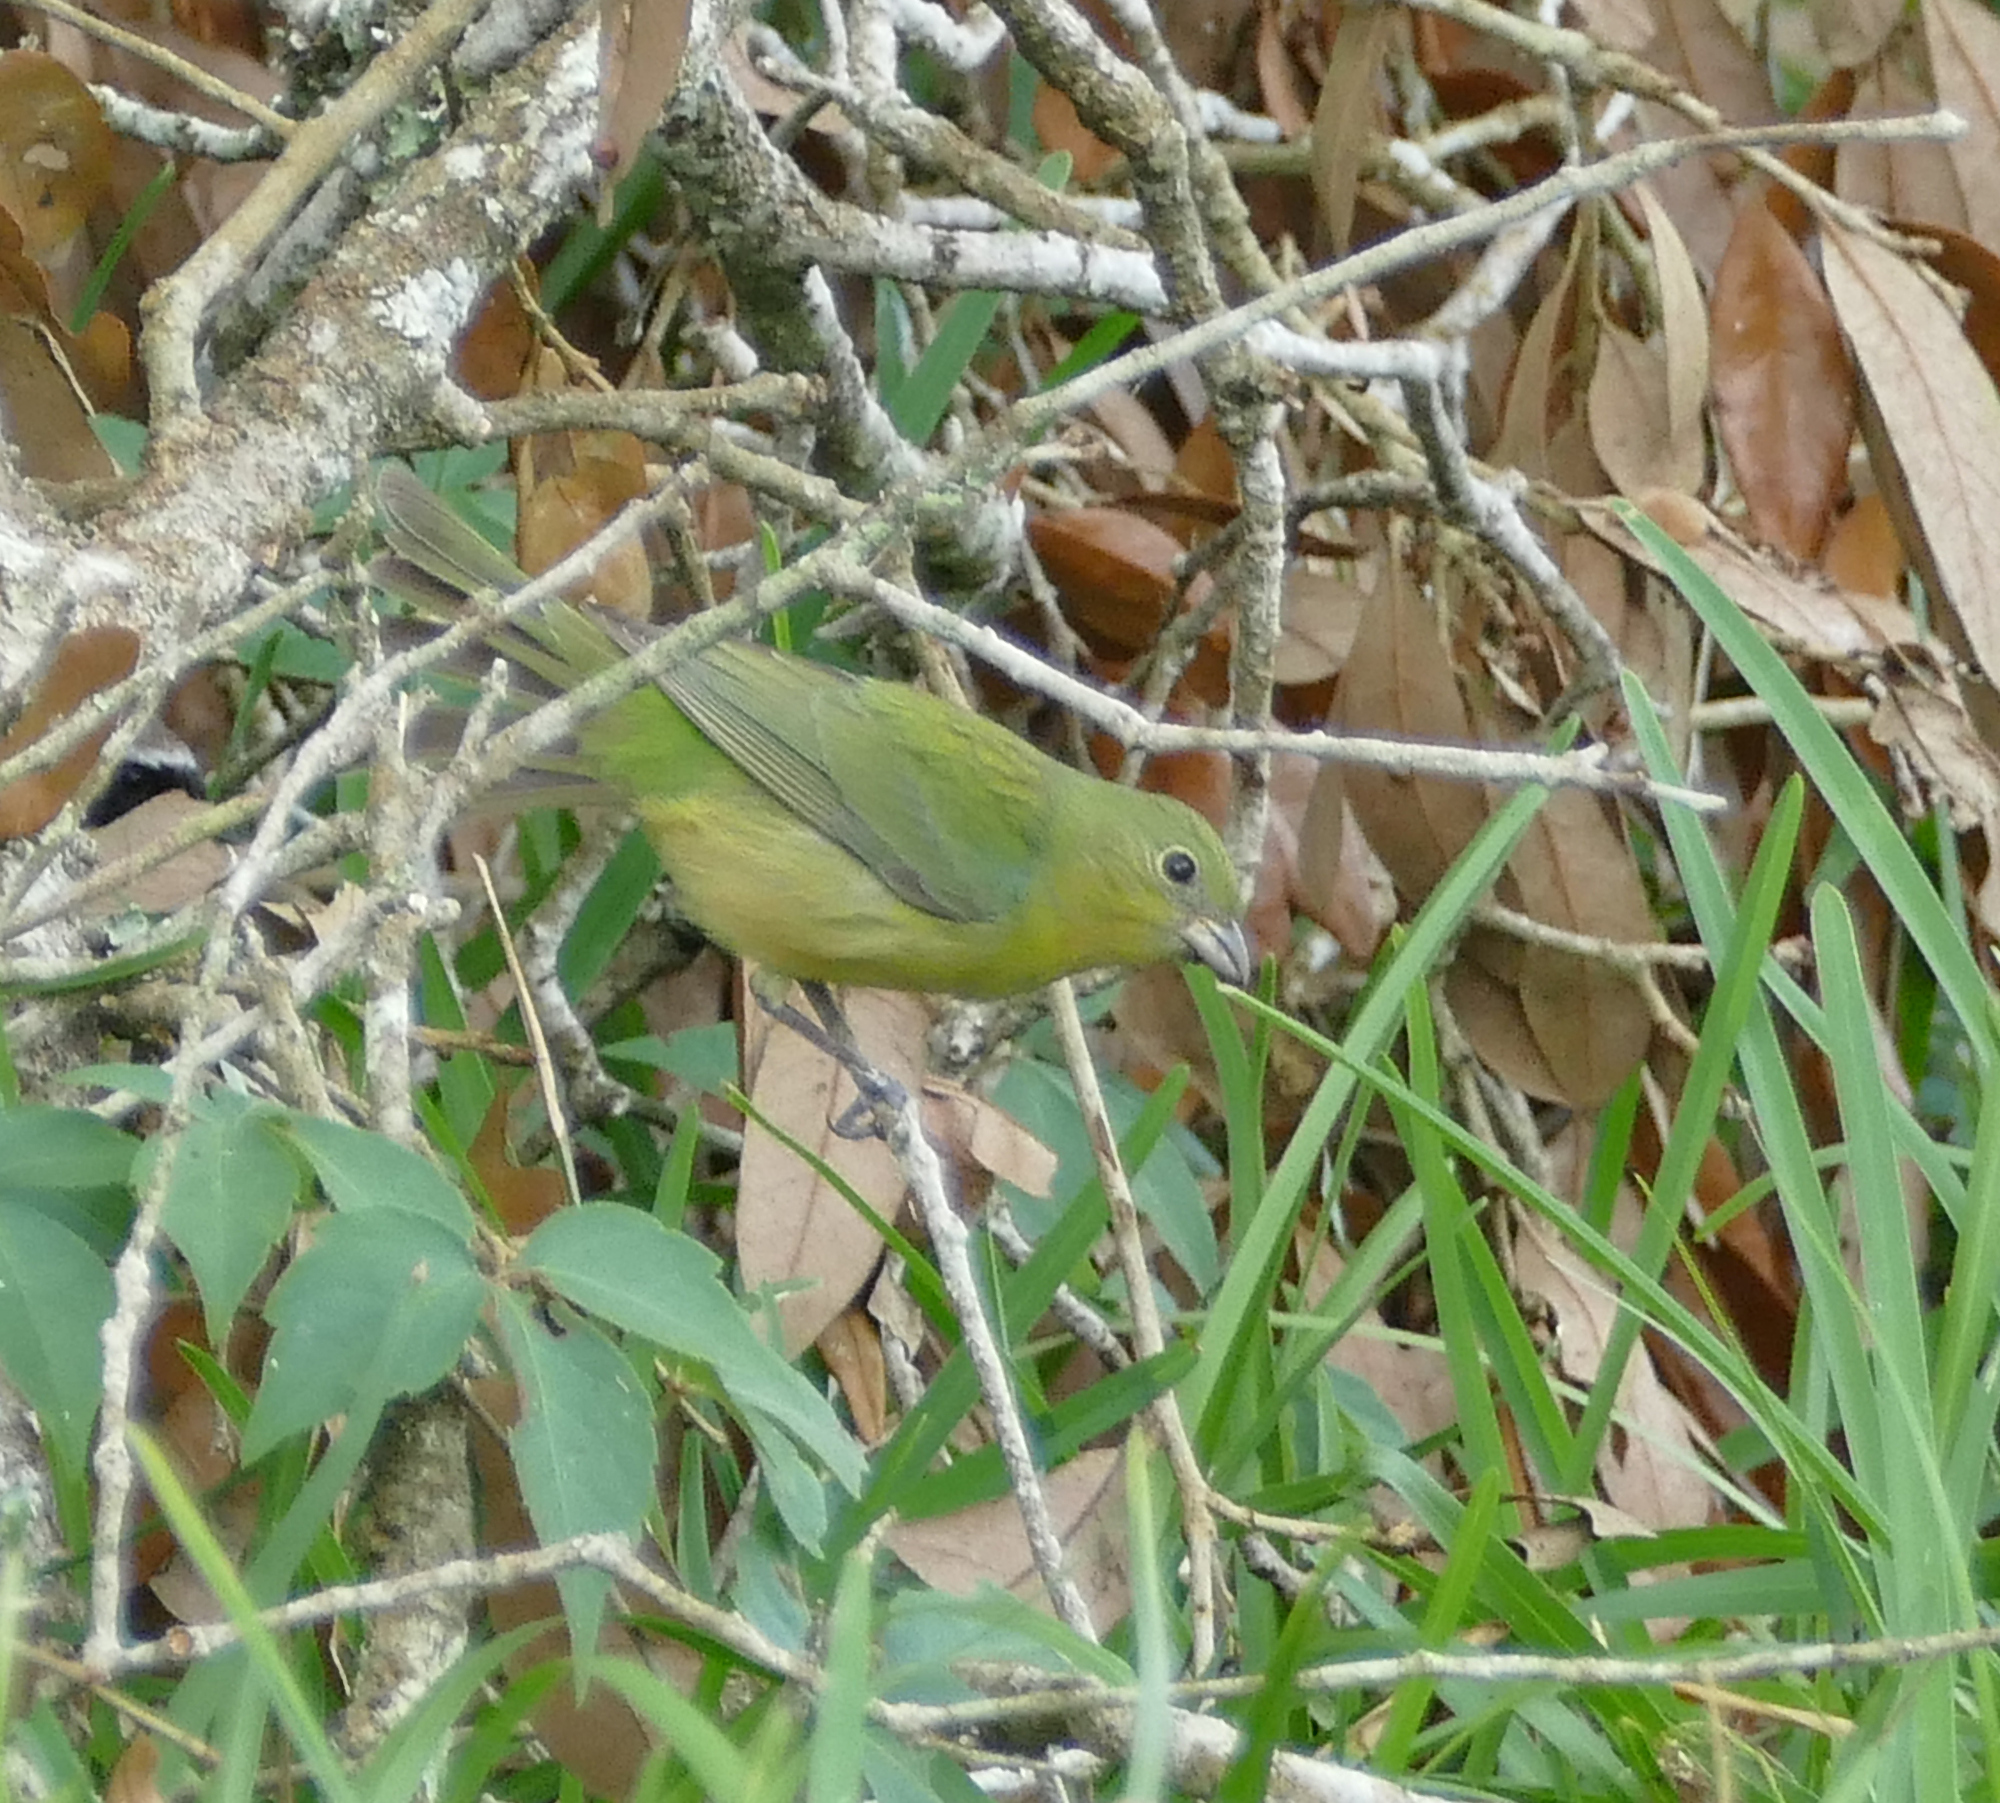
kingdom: Animalia
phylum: Chordata
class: Aves
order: Passeriformes
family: Cardinalidae
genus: Passerina
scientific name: Passerina ciris
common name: Painted bunting
